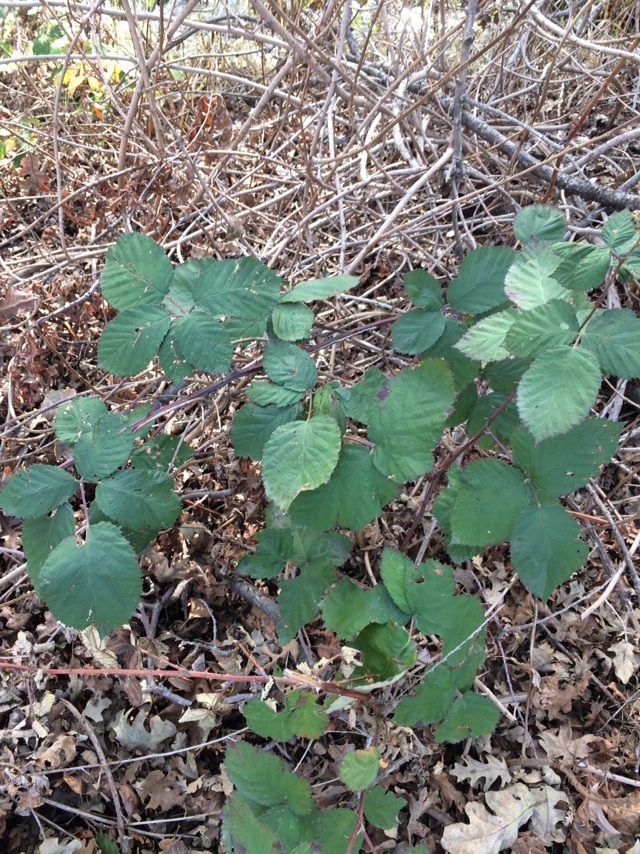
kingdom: Plantae
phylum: Tracheophyta
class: Magnoliopsida
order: Rosales
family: Rosaceae
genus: Rubus
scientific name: Rubus armeniacus
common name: Himalayan blackberry
